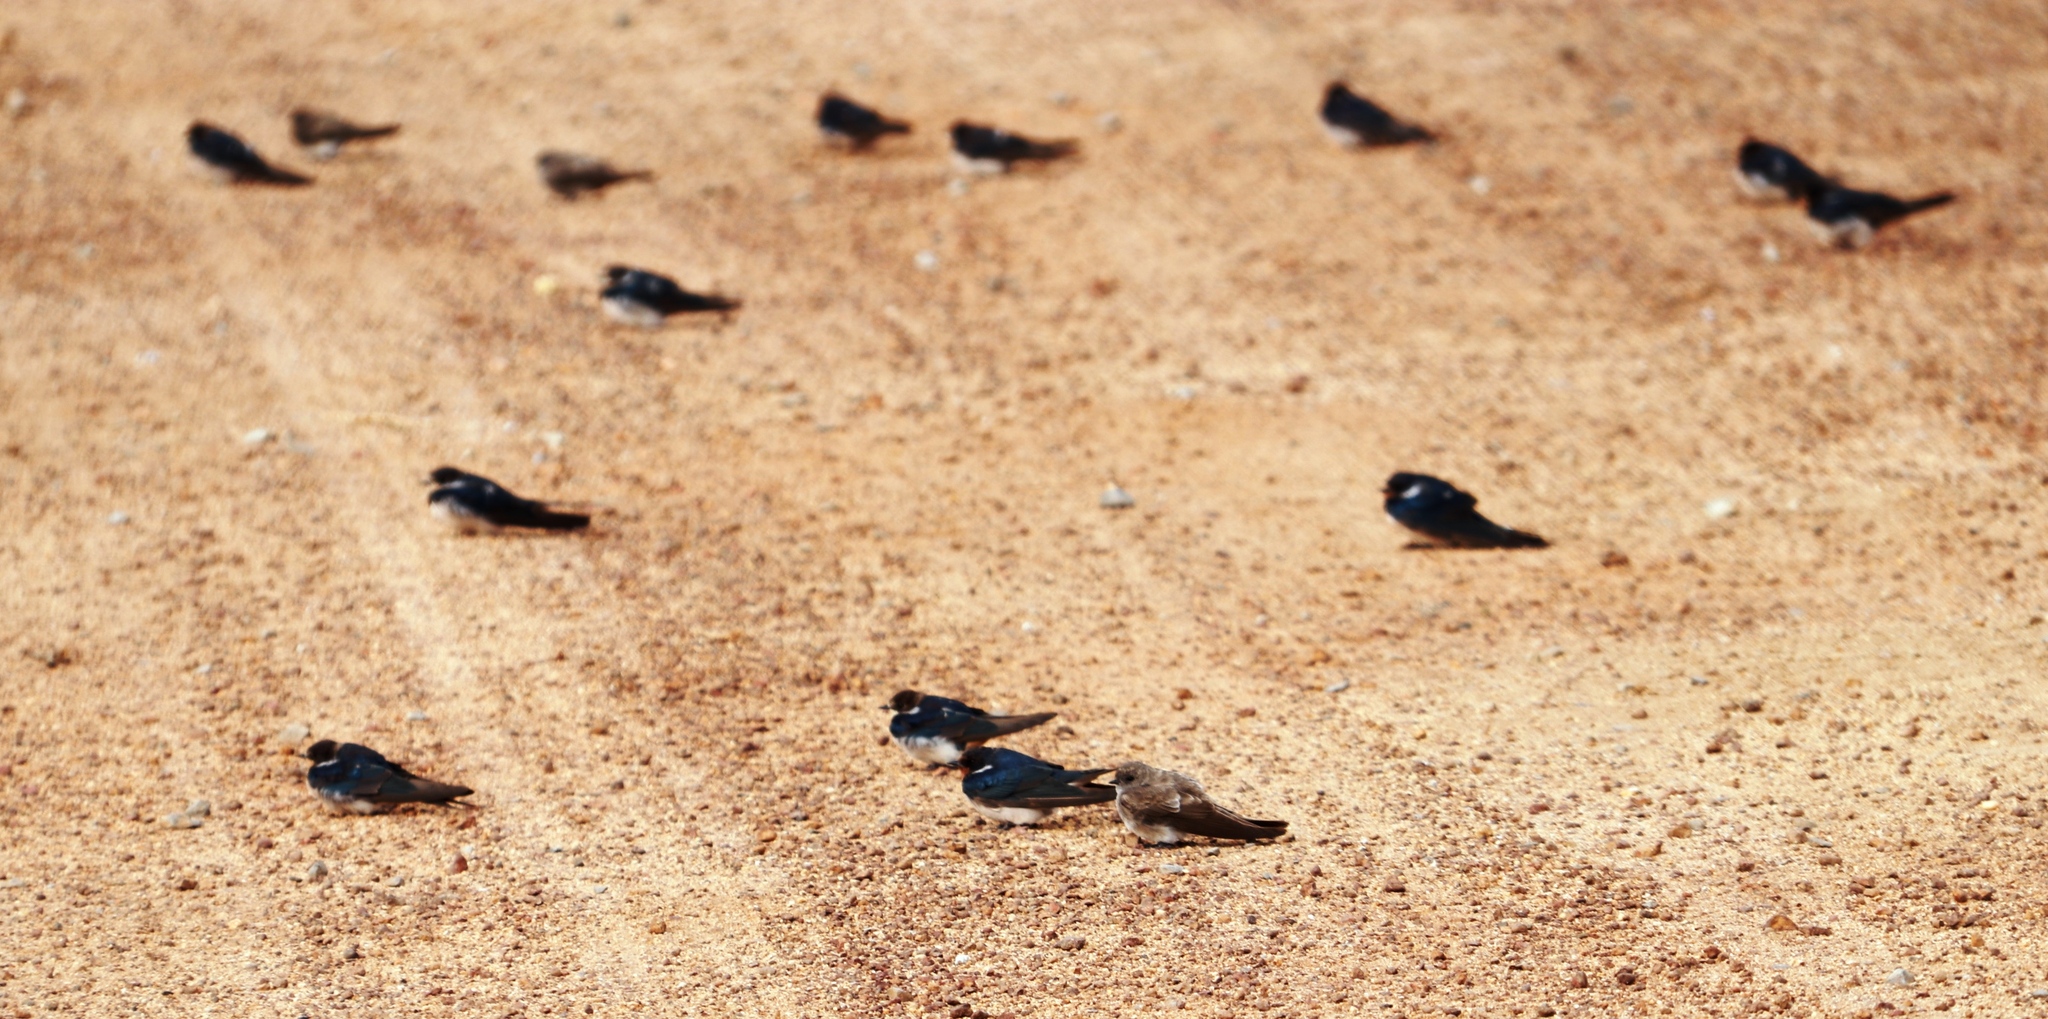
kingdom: Animalia
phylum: Chordata
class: Aves
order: Passeriformes
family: Hirundinidae
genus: Hirundo
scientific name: Hirundo rustica
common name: Barn swallow
